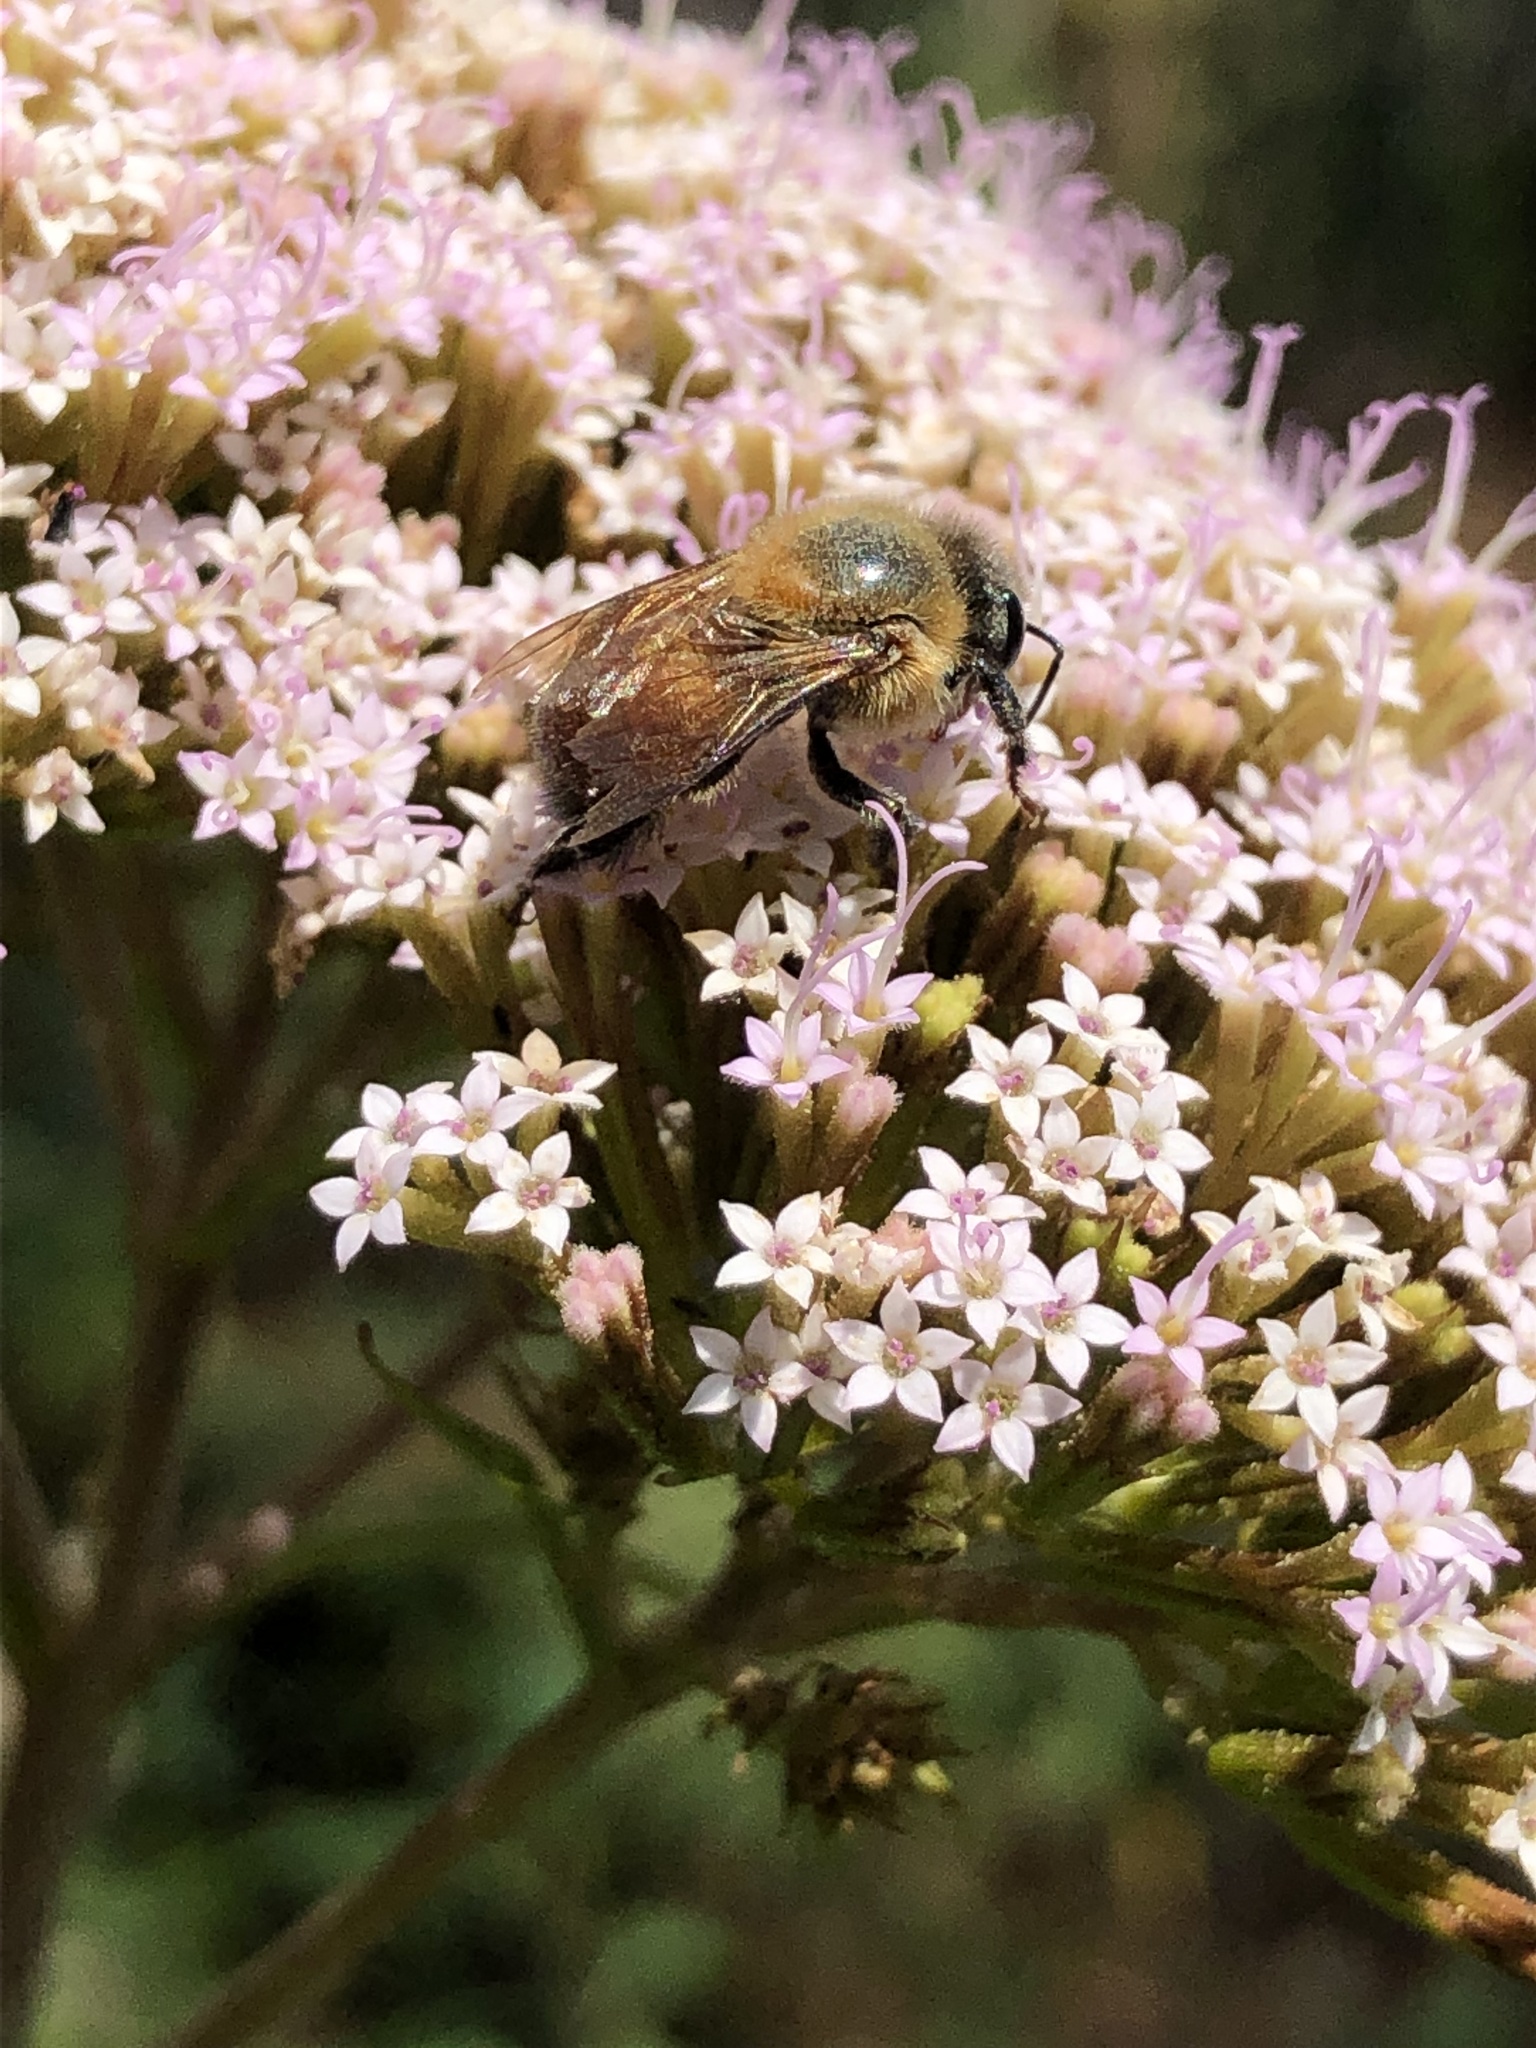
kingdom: Animalia
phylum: Arthropoda
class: Insecta
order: Hymenoptera
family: Apidae
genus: Melipona
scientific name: Melipona fasciata
